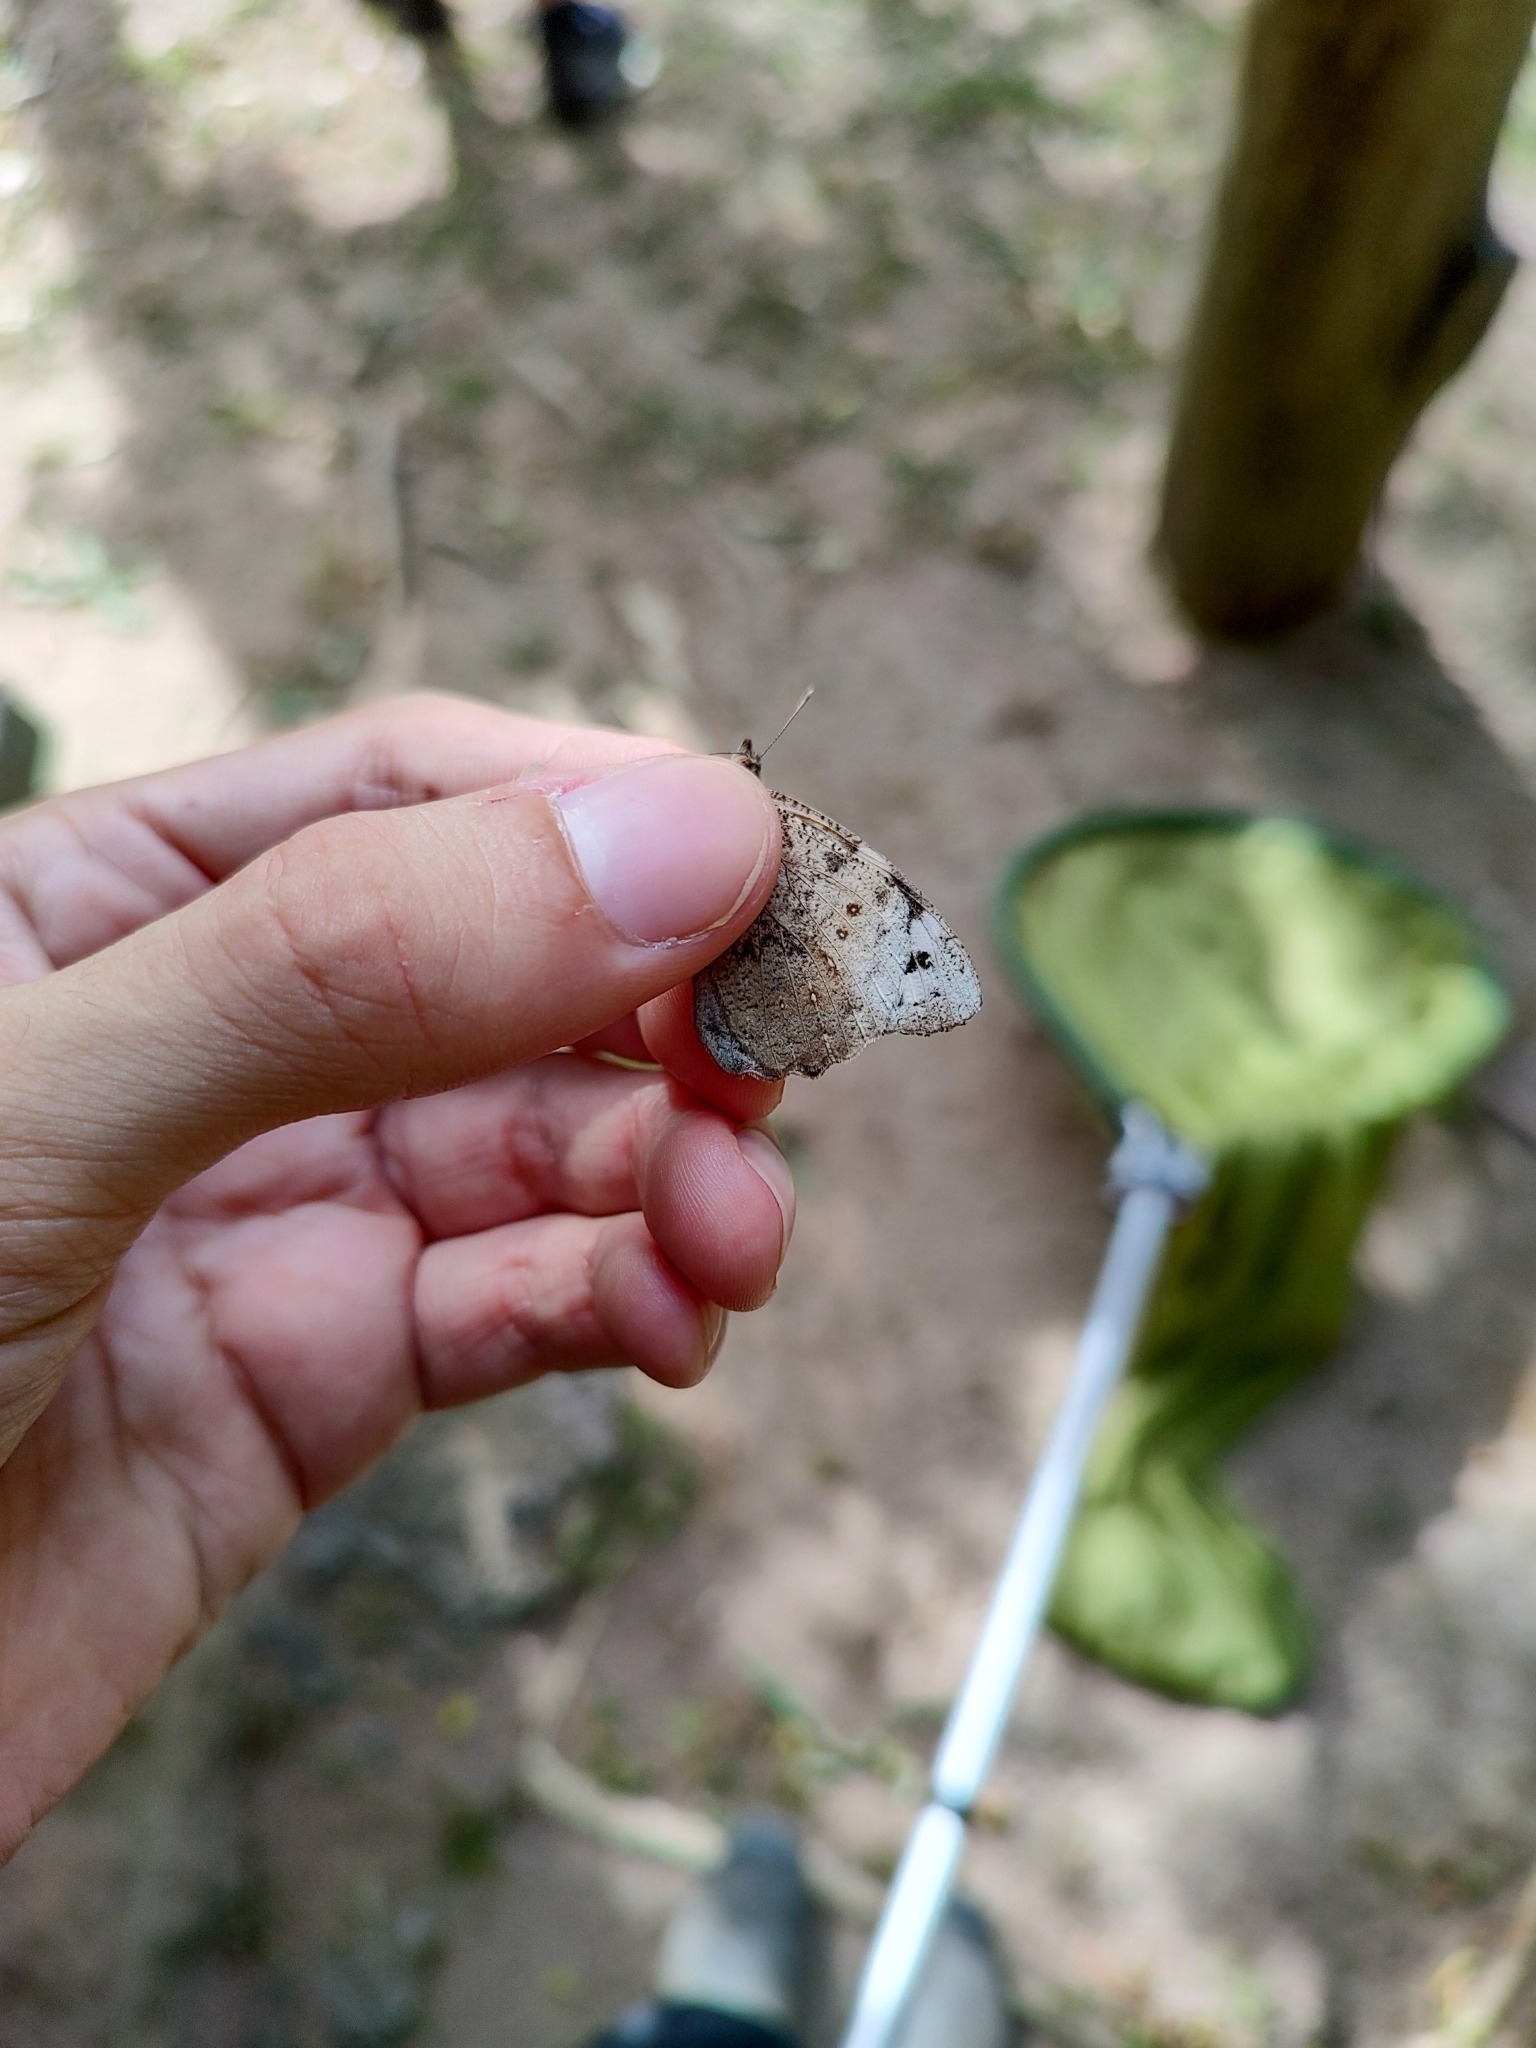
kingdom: Animalia
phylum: Arthropoda
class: Insecta
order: Lepidoptera
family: Nymphalidae
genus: Eunica
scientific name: Eunica eburnea
